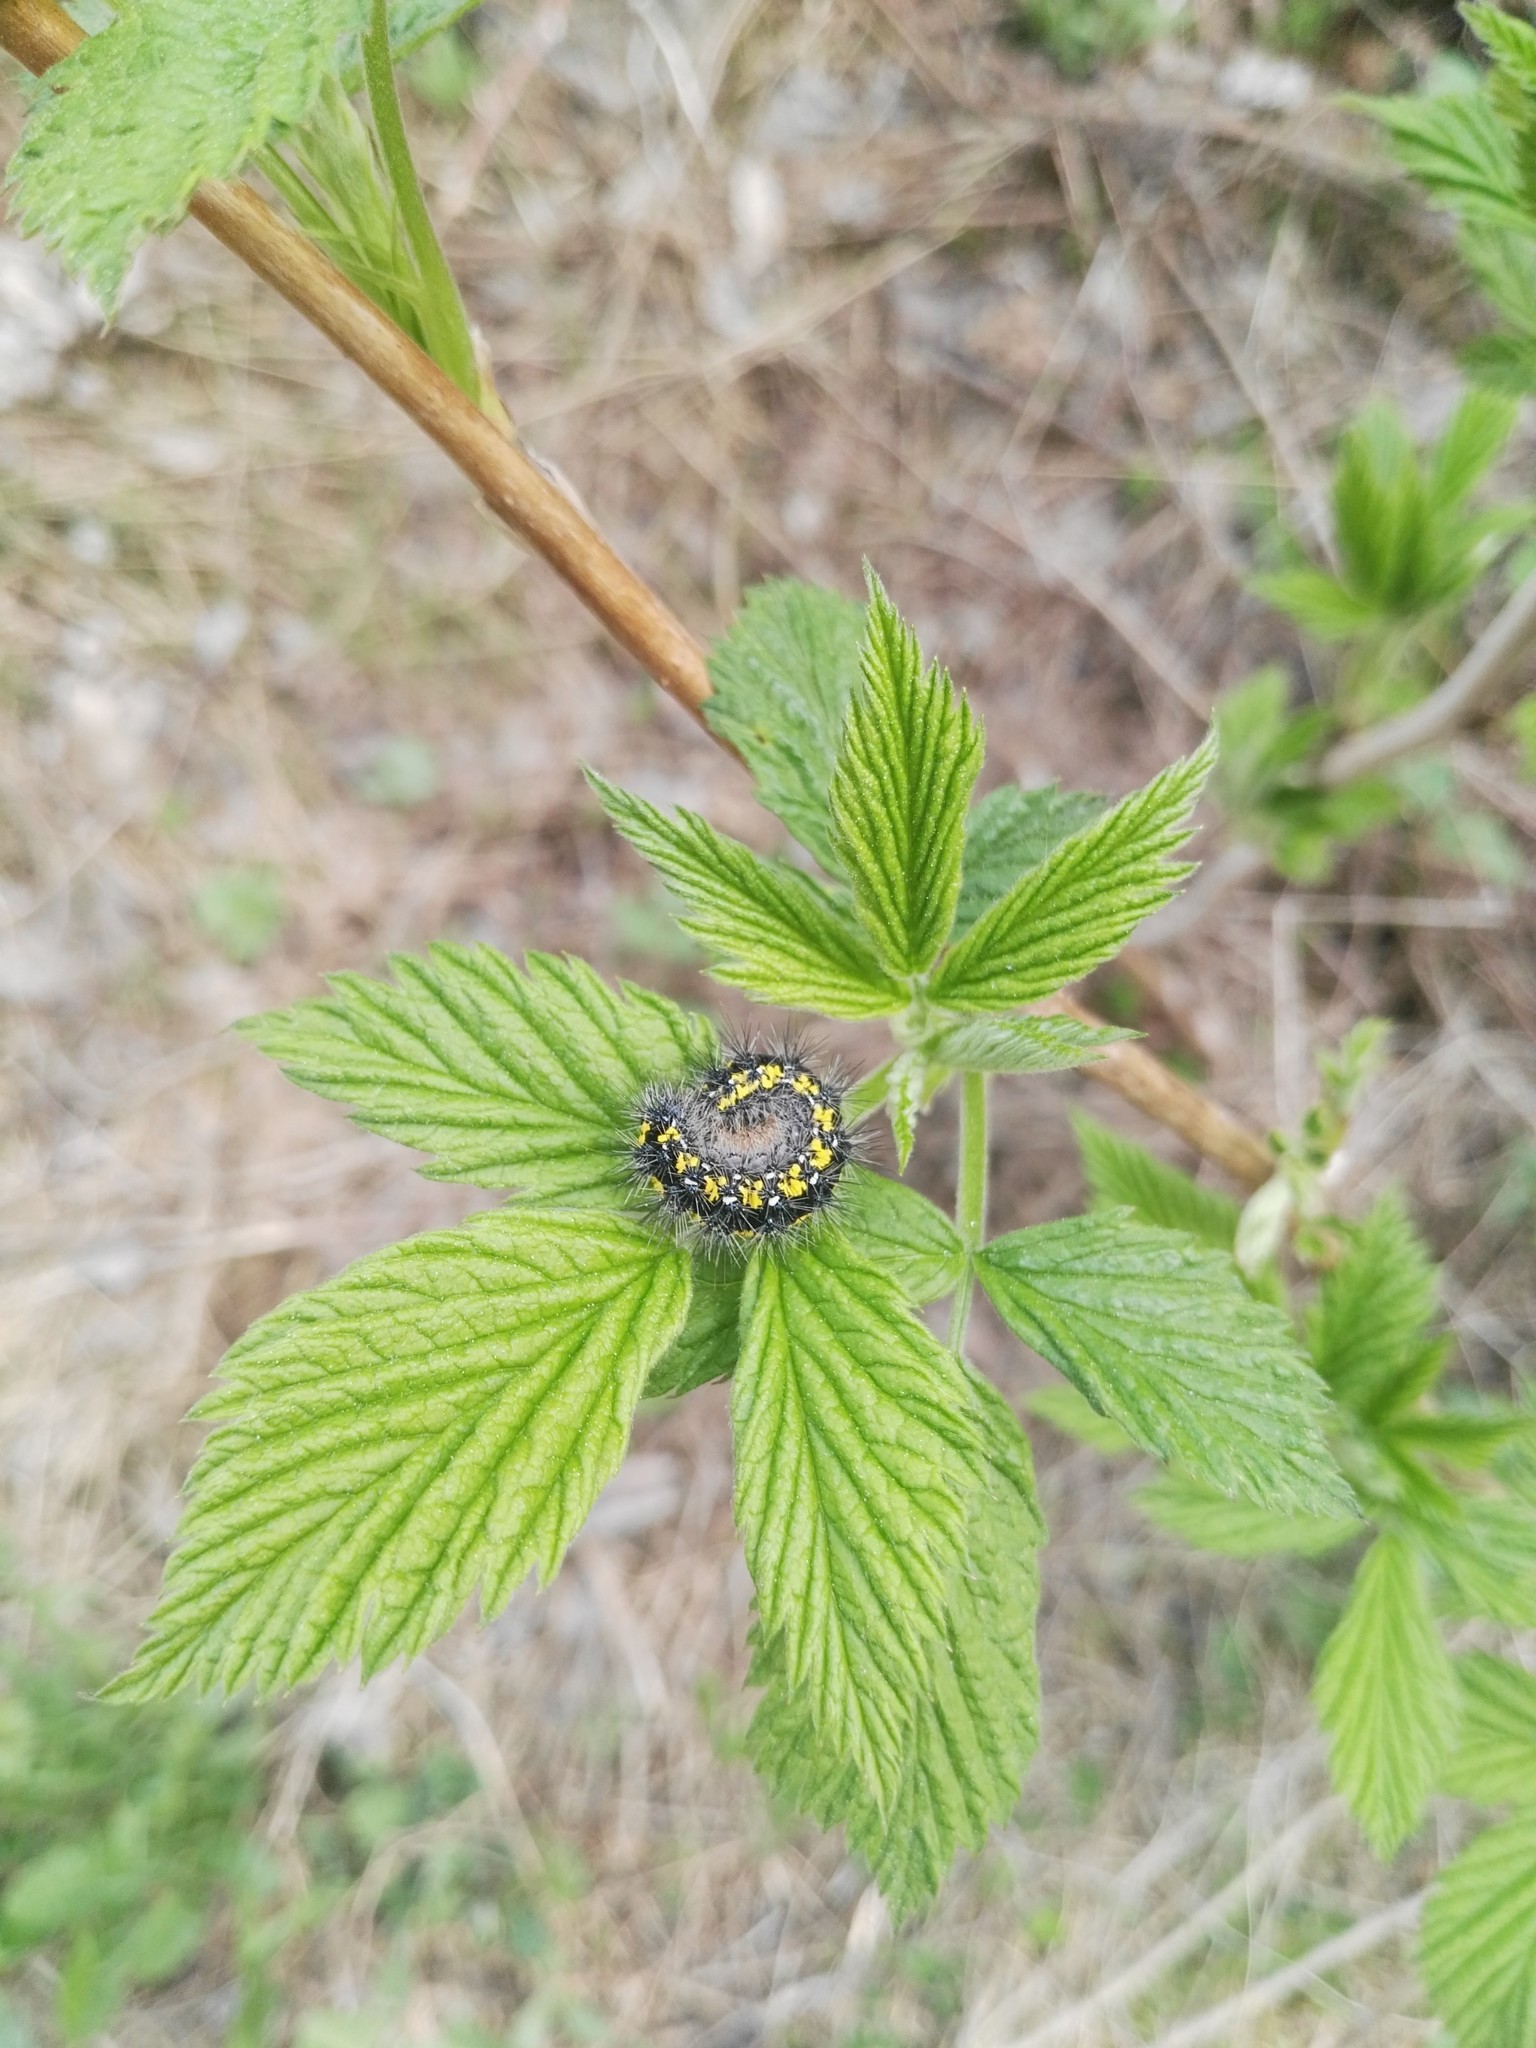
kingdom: Animalia
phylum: Arthropoda
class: Insecta
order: Lepidoptera
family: Erebidae
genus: Callimorpha
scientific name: Callimorpha dominula
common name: Scarlet tiger
